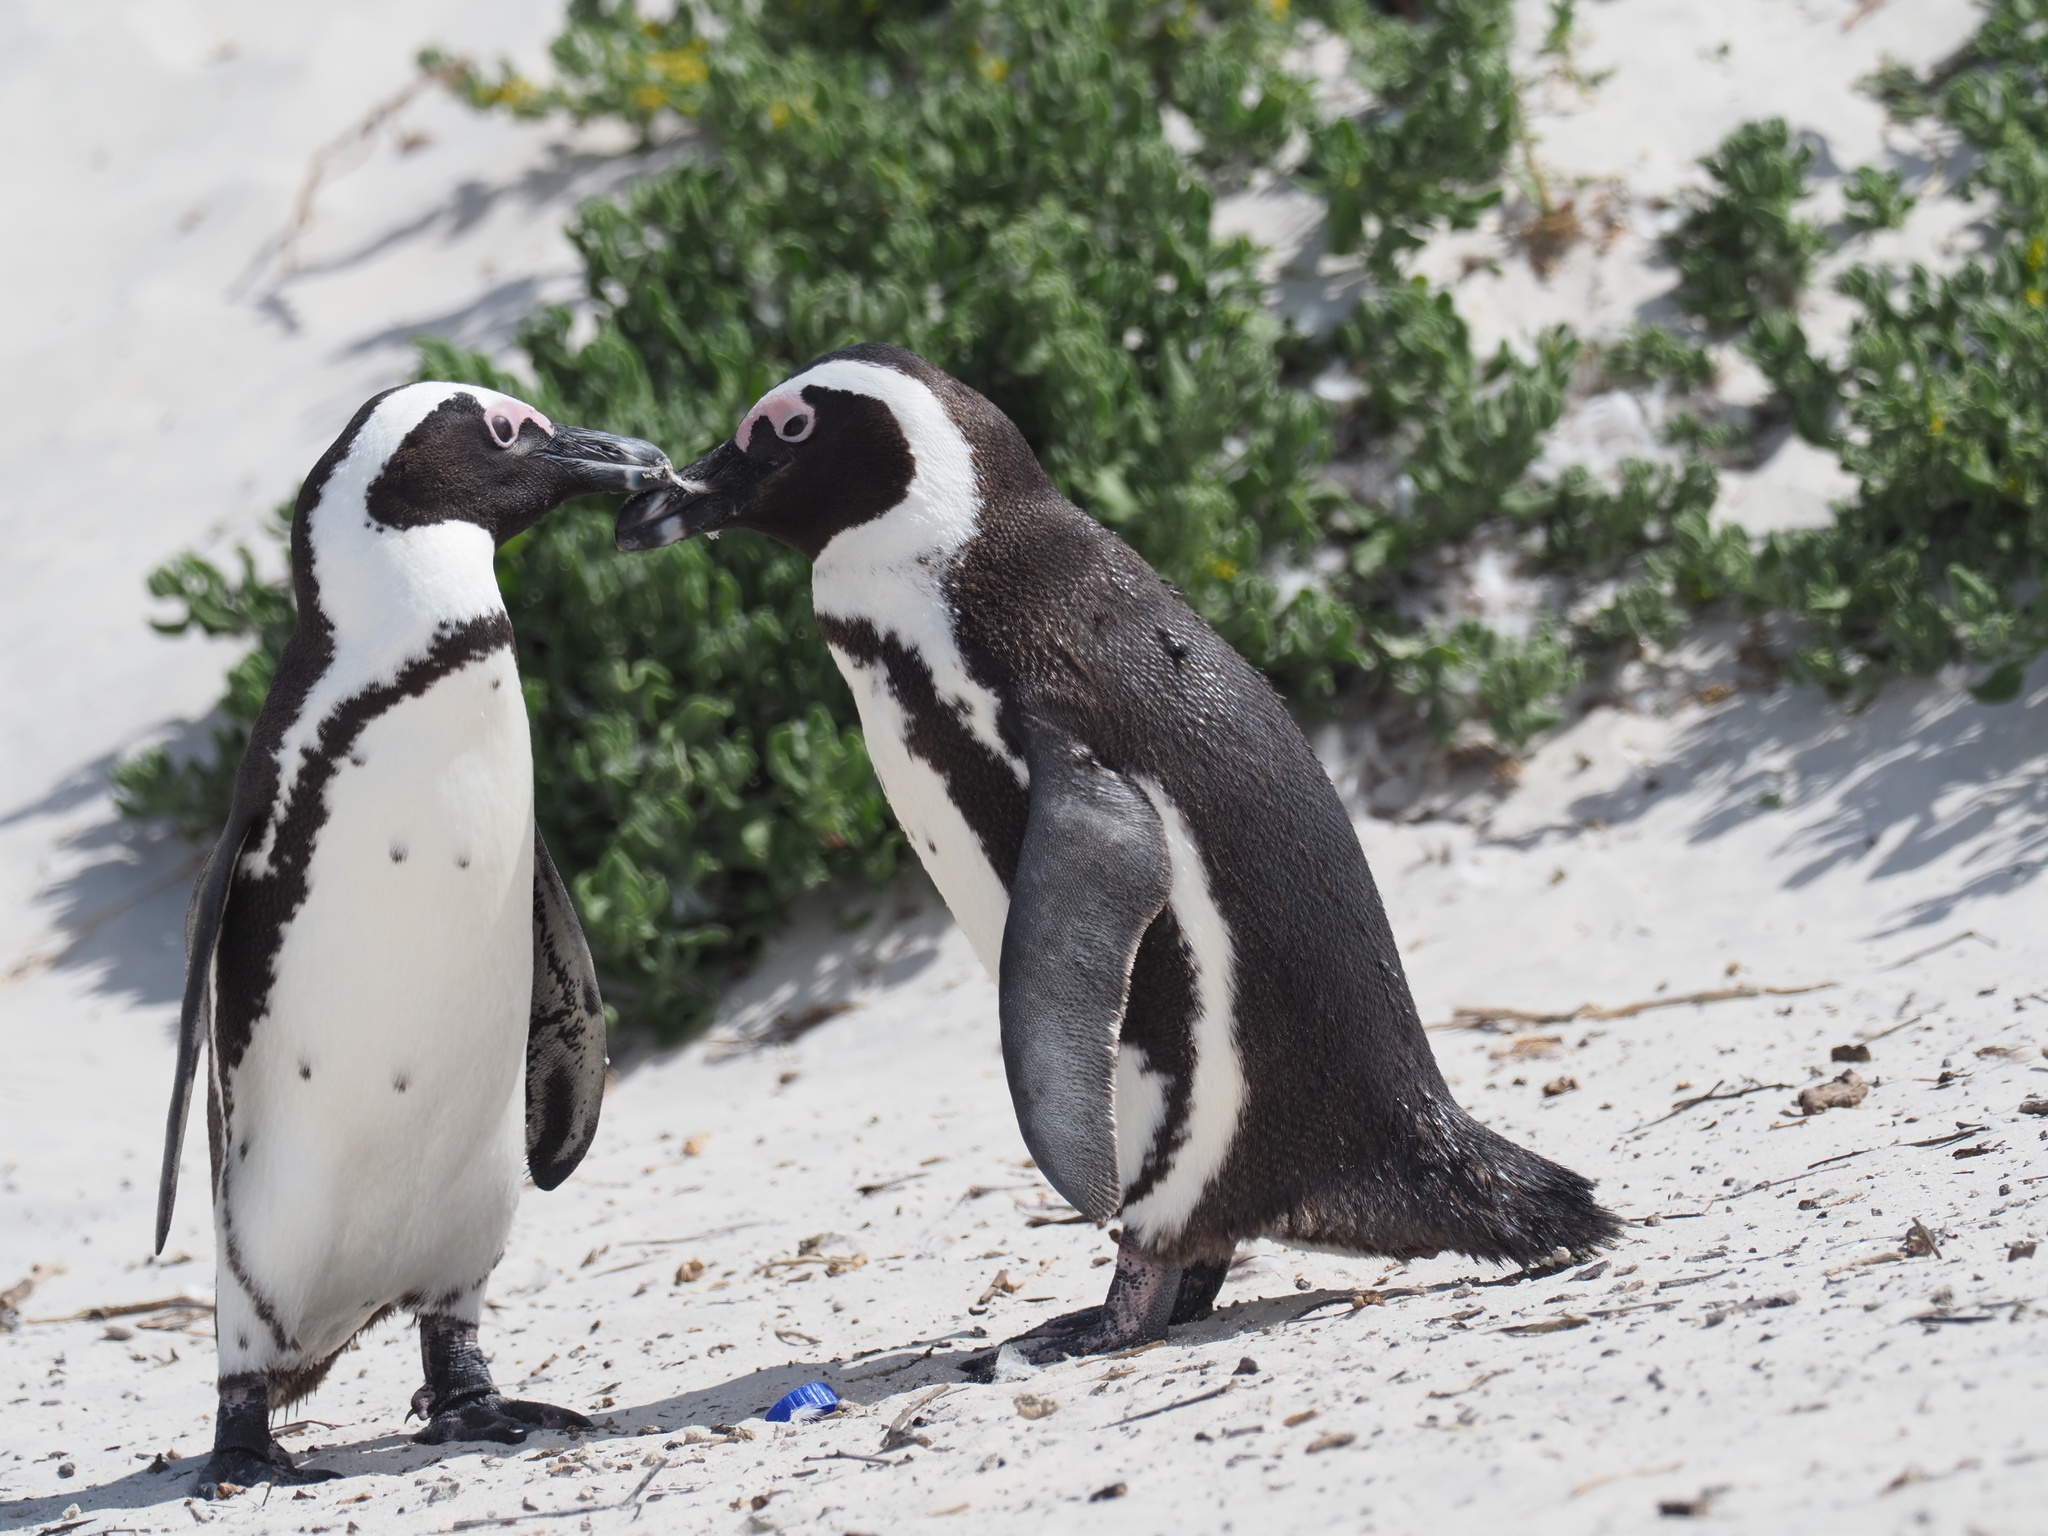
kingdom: Animalia
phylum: Chordata
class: Aves
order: Sphenisciformes
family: Spheniscidae
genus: Spheniscus
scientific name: Spheniscus demersus
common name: African penguin
